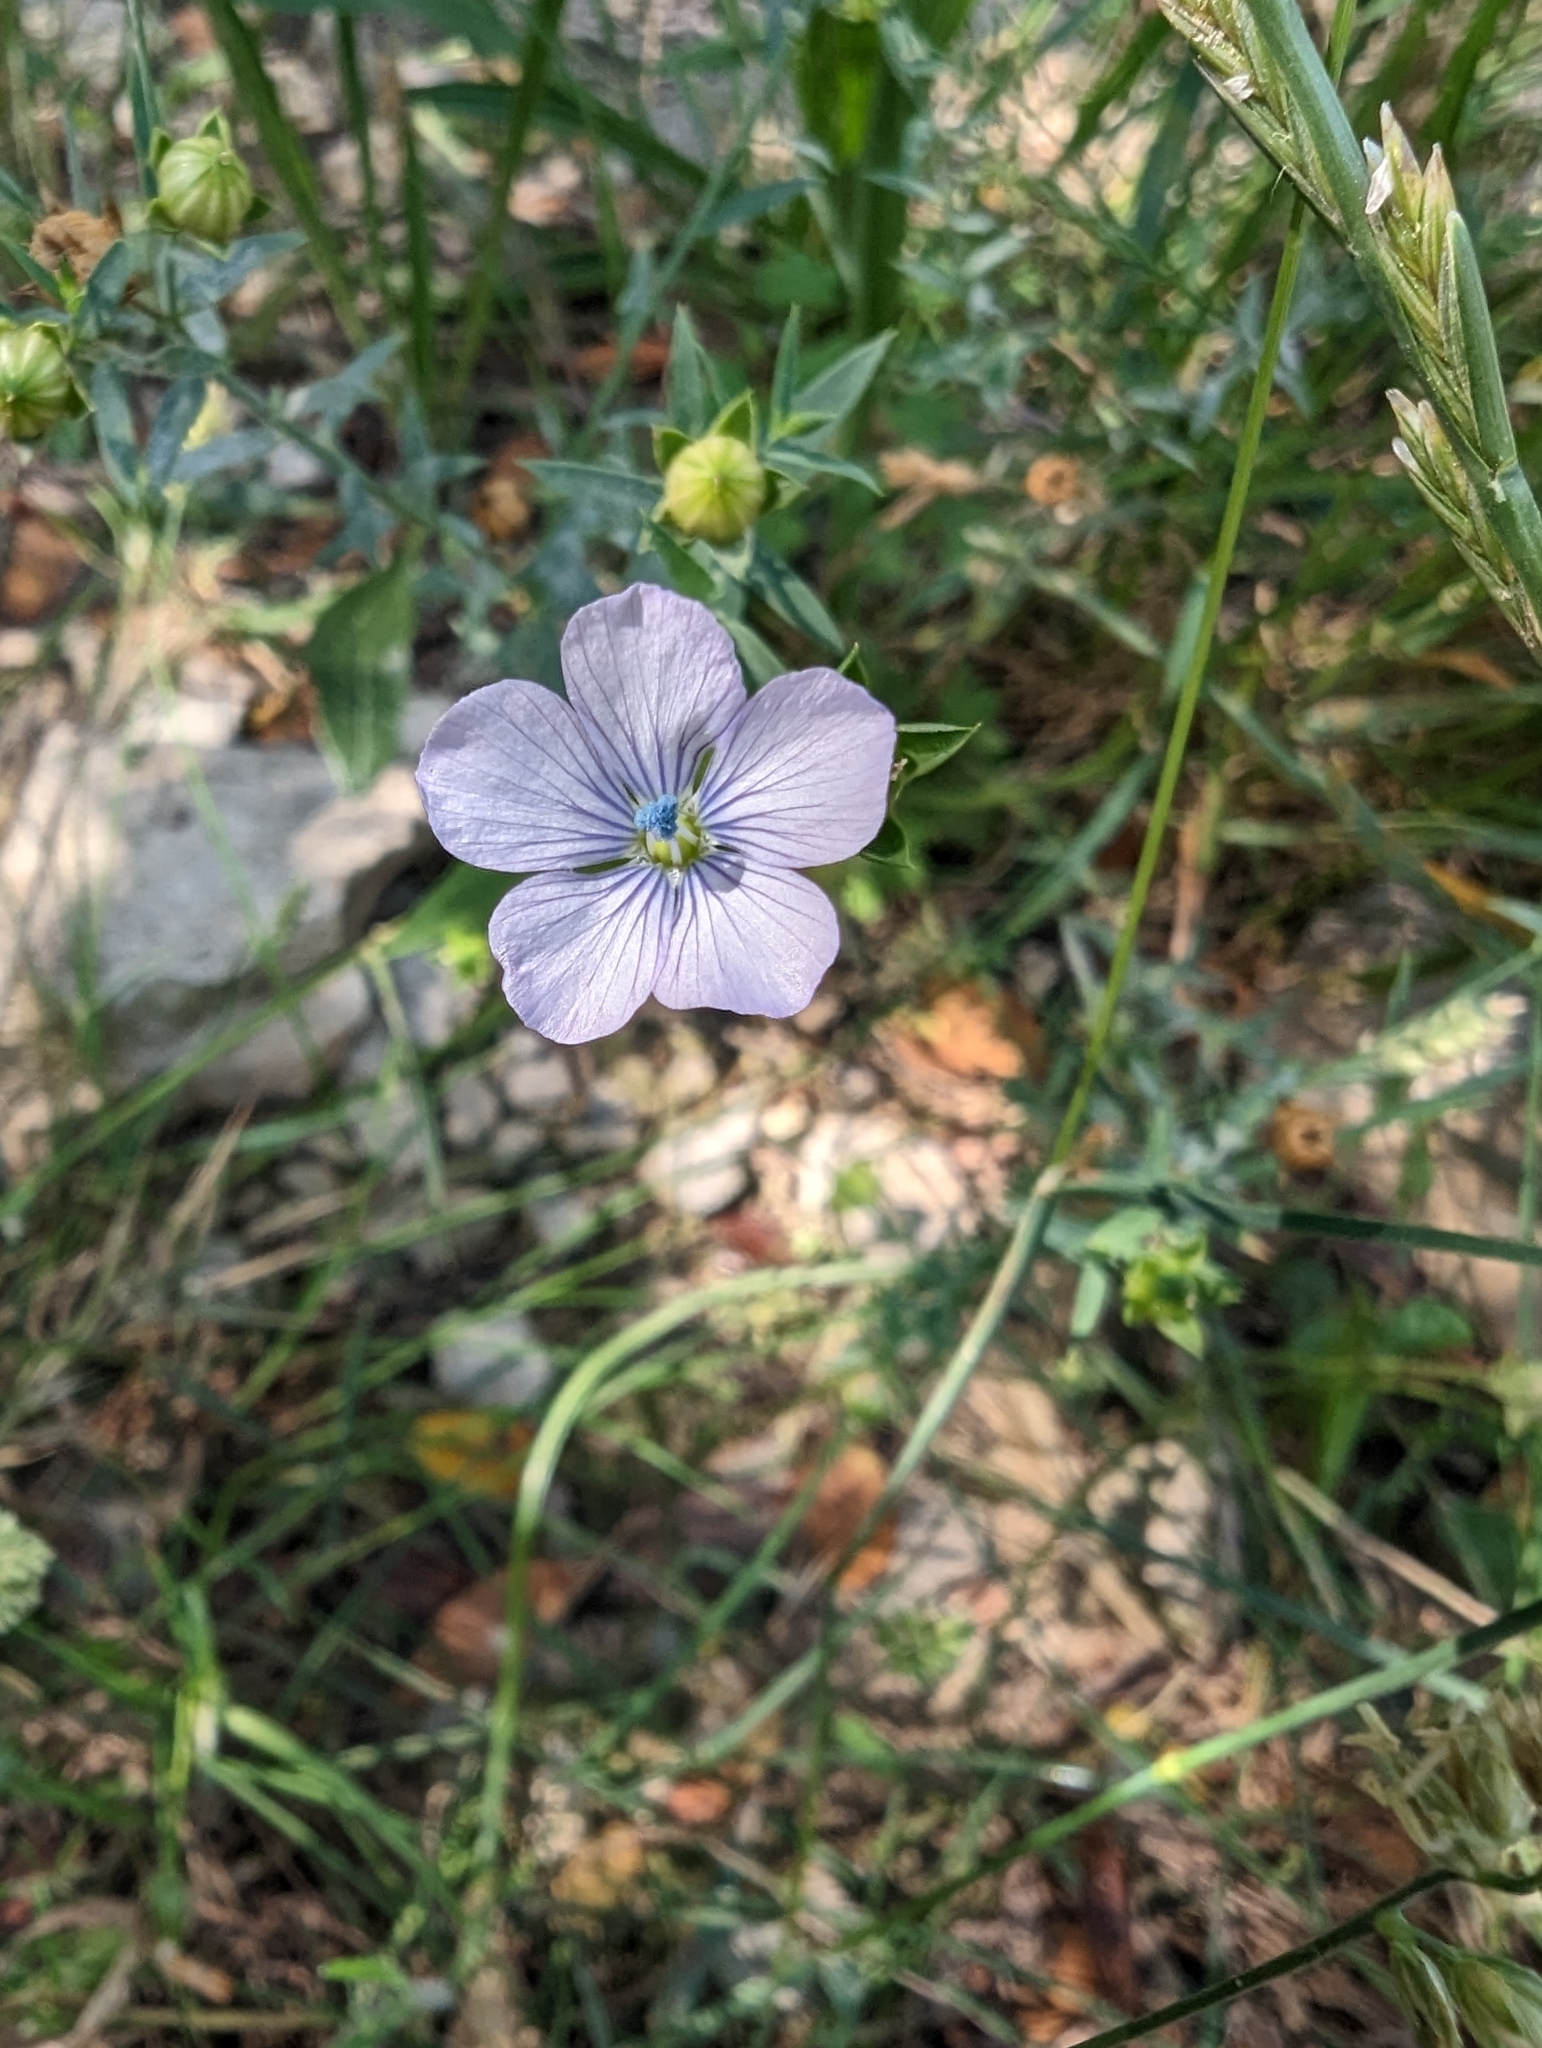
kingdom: Plantae
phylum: Tracheophyta
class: Magnoliopsida
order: Malpighiales
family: Linaceae
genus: Linum
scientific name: Linum bienne
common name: Pale flax
